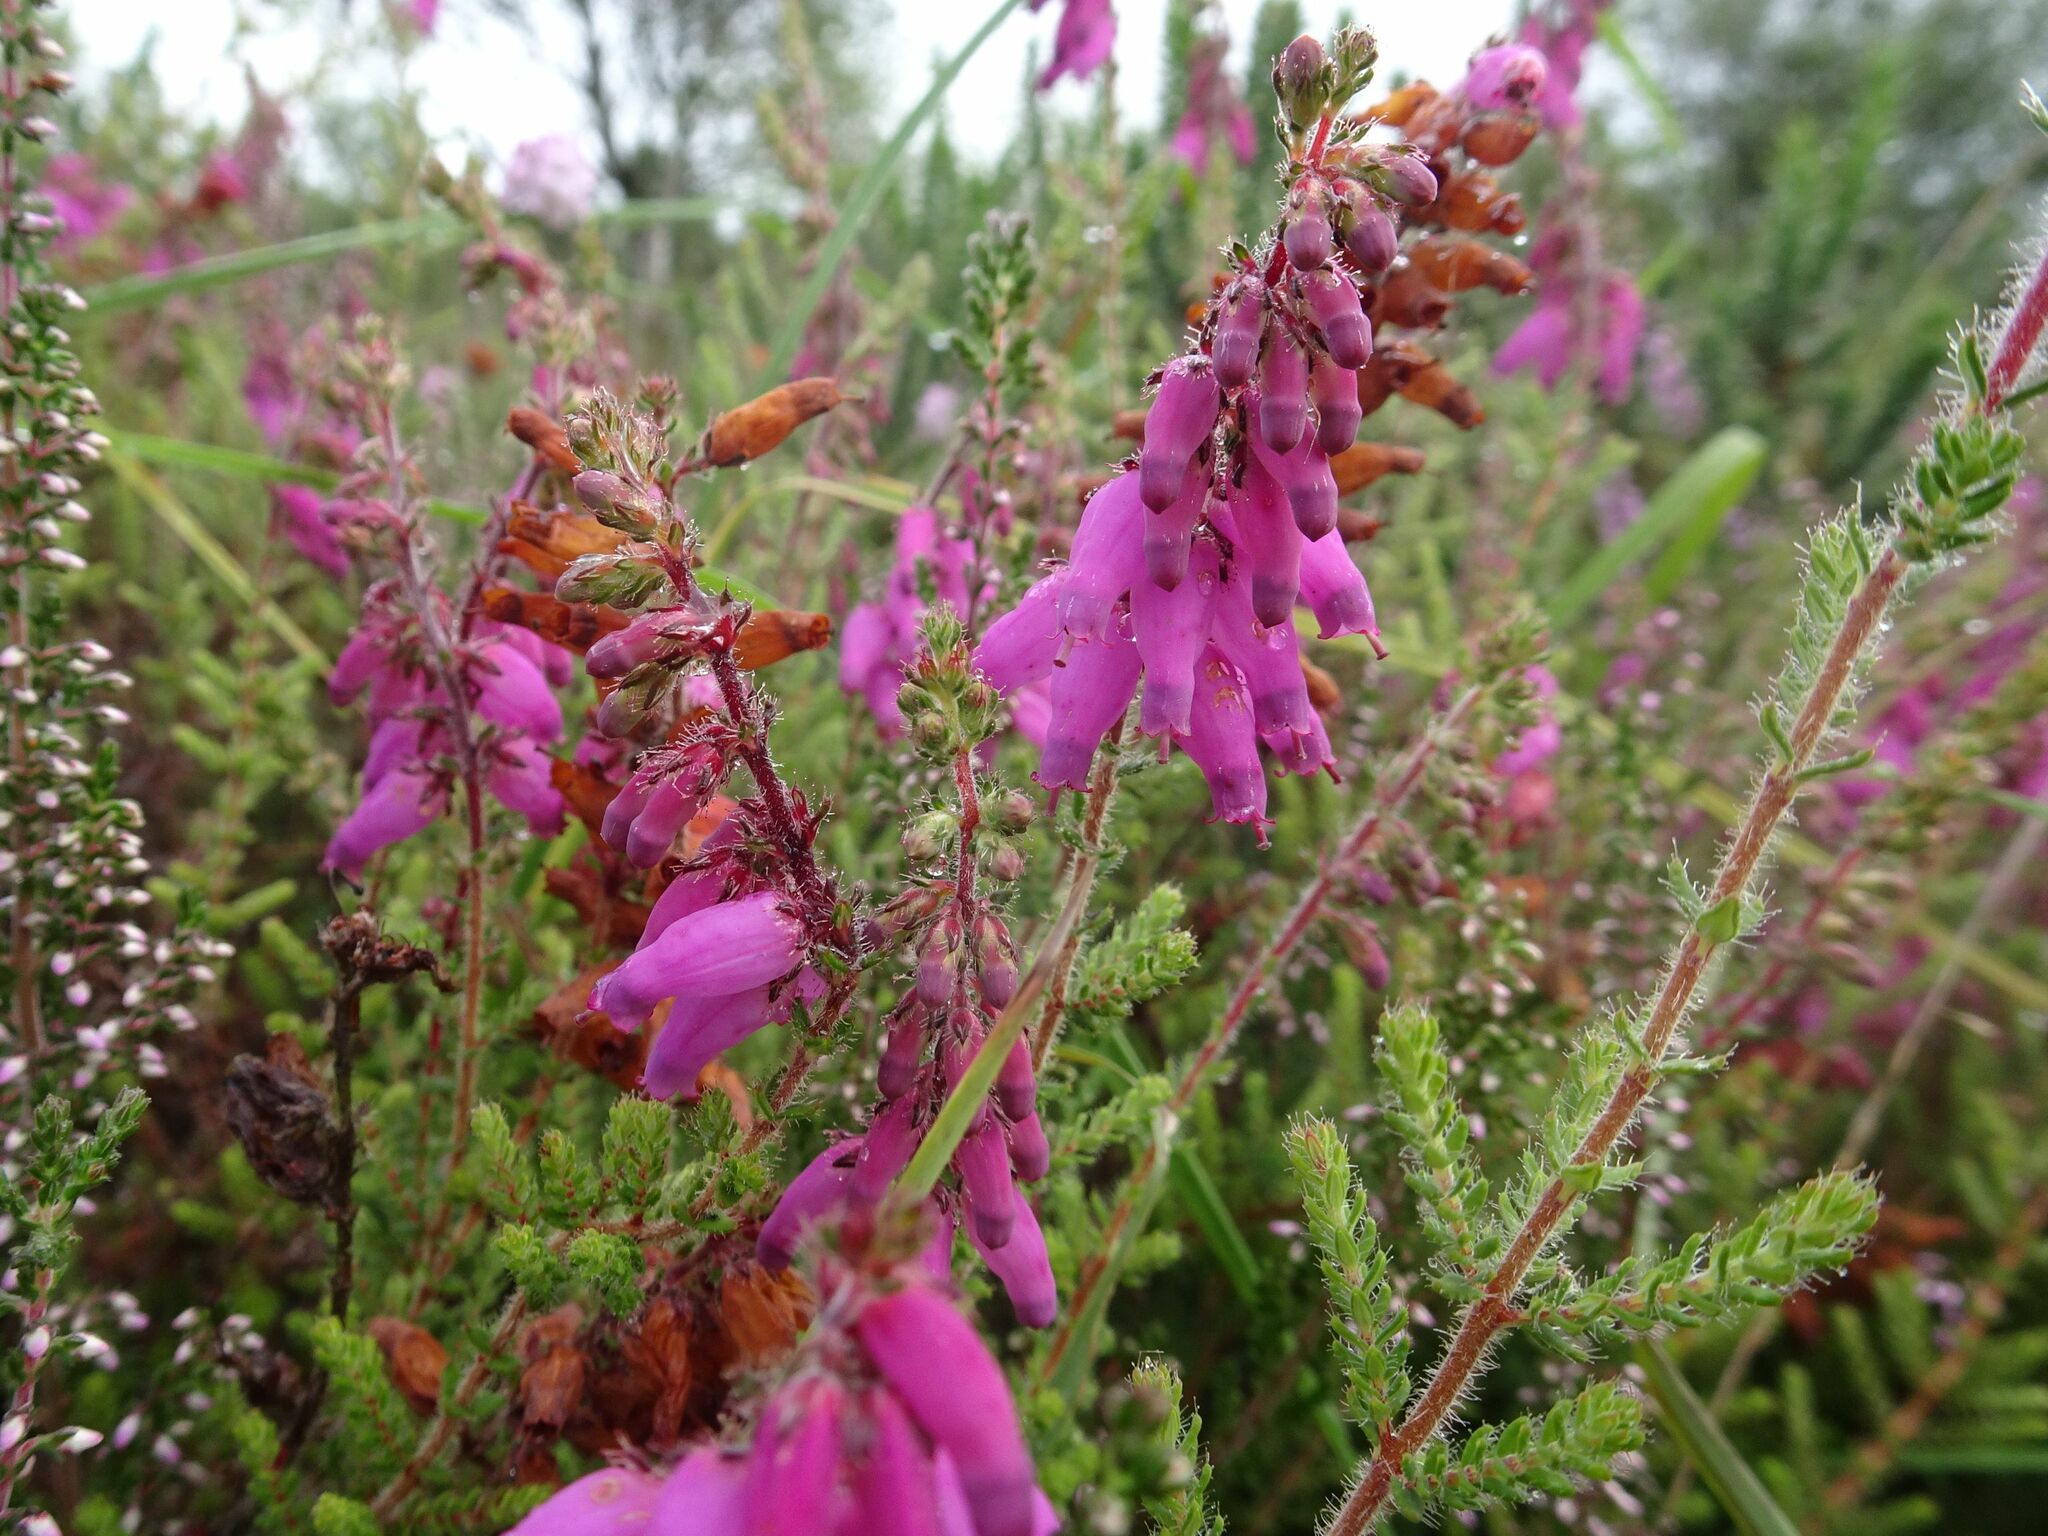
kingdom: Plantae
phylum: Tracheophyta
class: Magnoliopsida
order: Ericales
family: Ericaceae
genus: Erica
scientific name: Erica ciliaris
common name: Dorset heath
